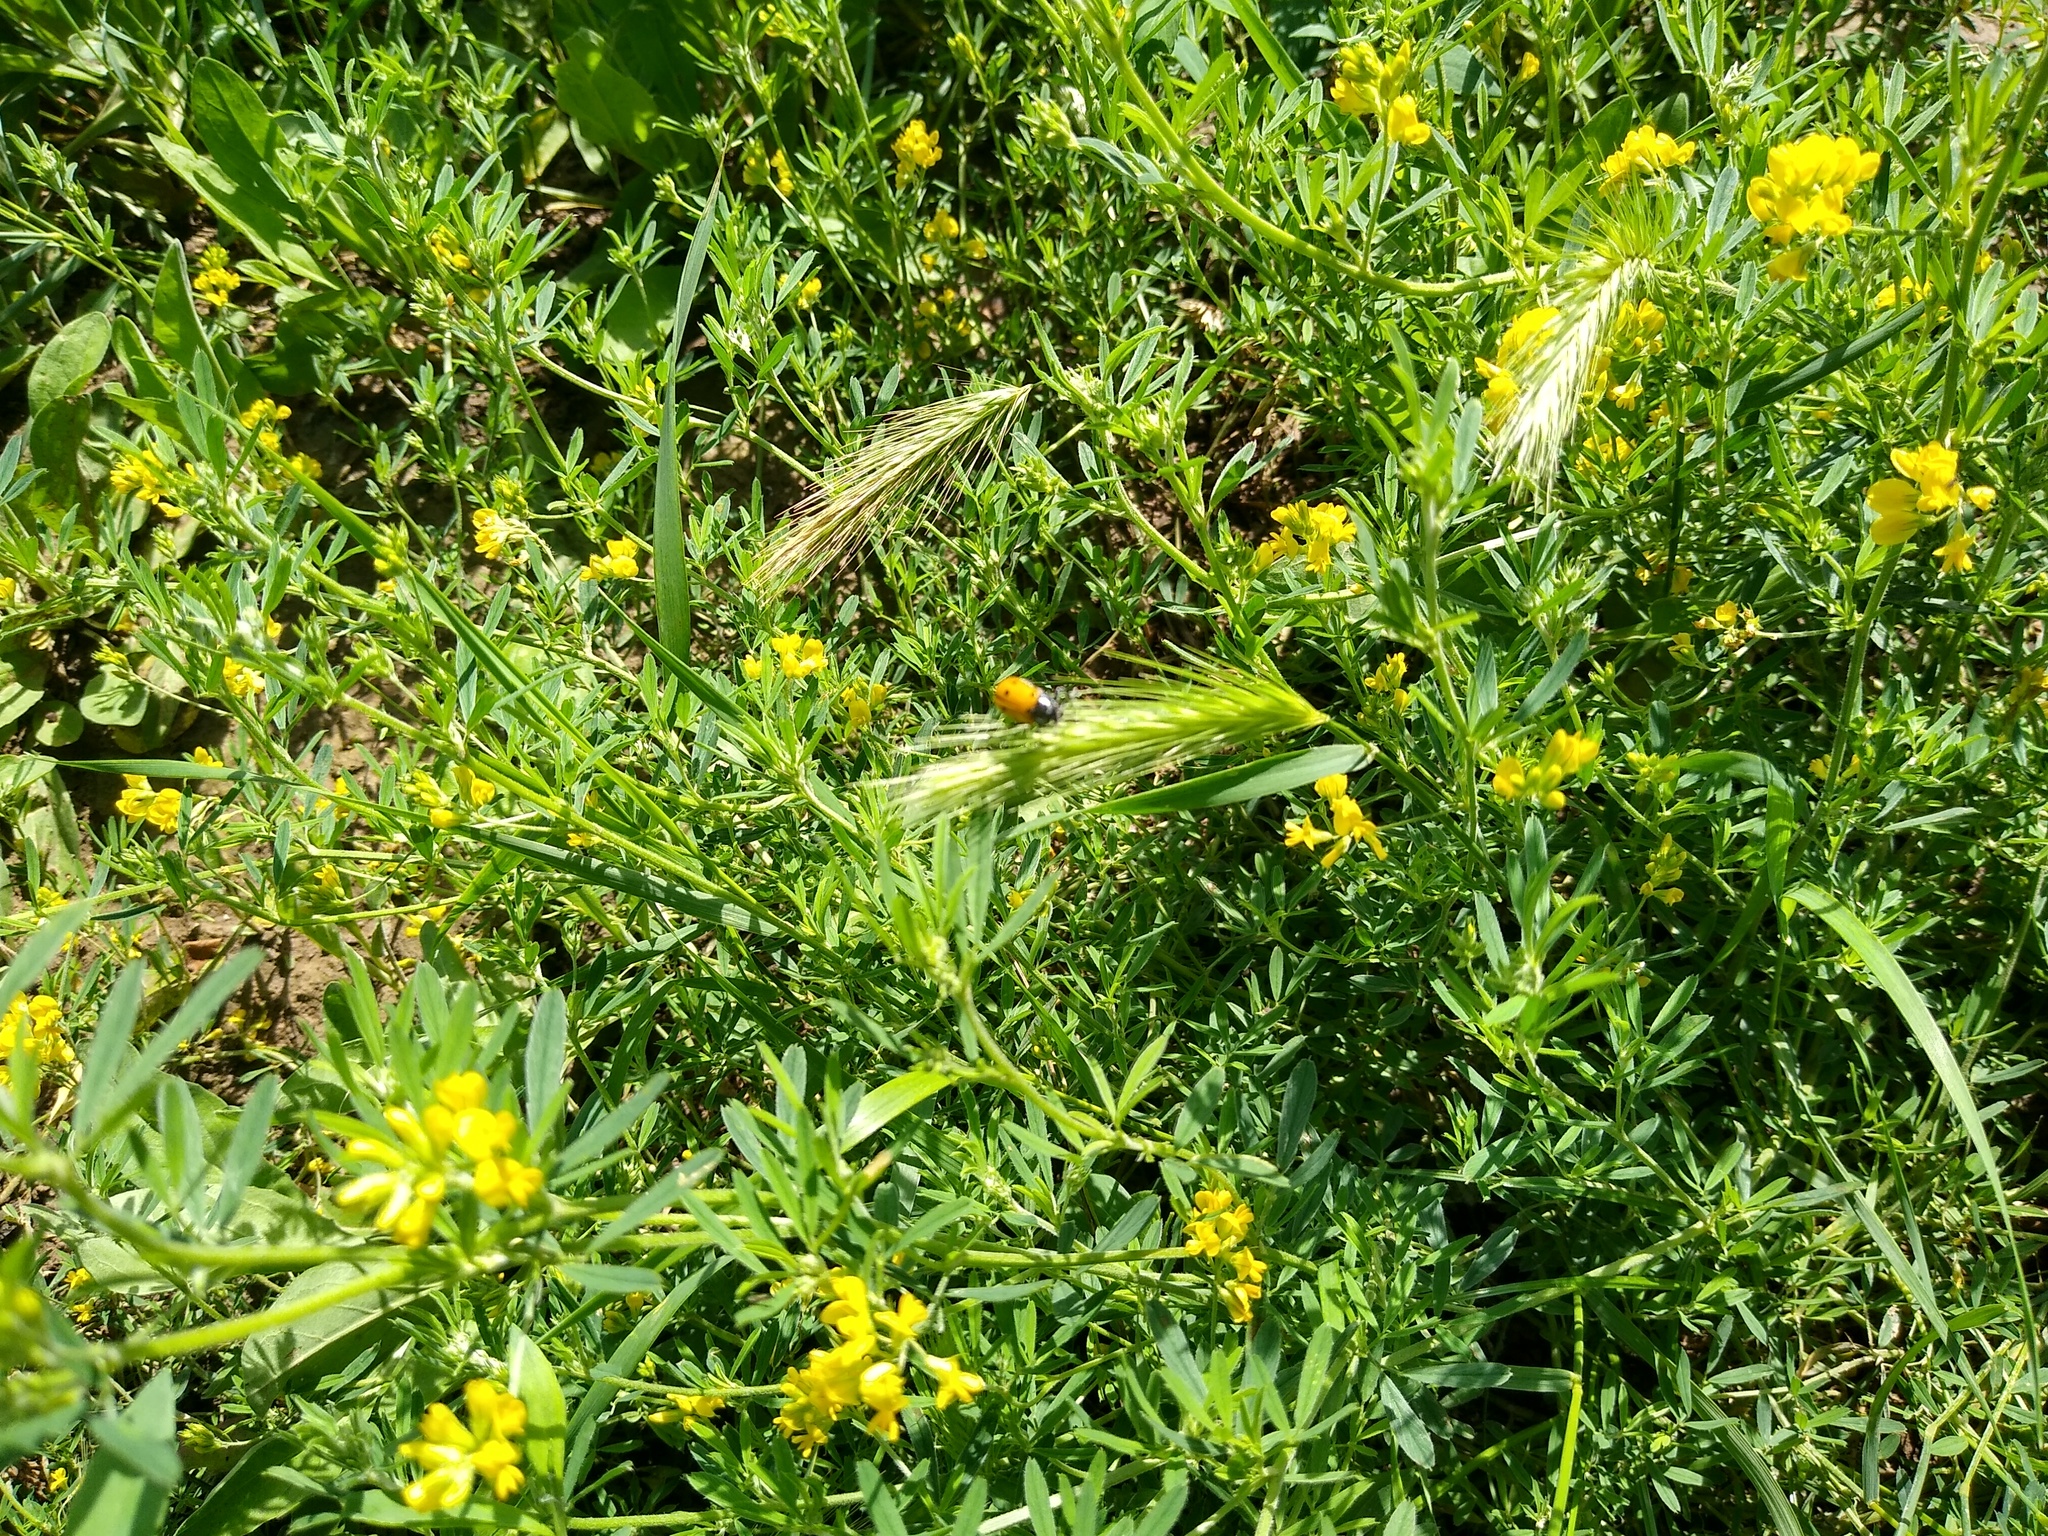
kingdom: Plantae
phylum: Tracheophyta
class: Magnoliopsida
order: Fabales
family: Fabaceae
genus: Medicago
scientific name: Medicago falcata
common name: Sickle medick
